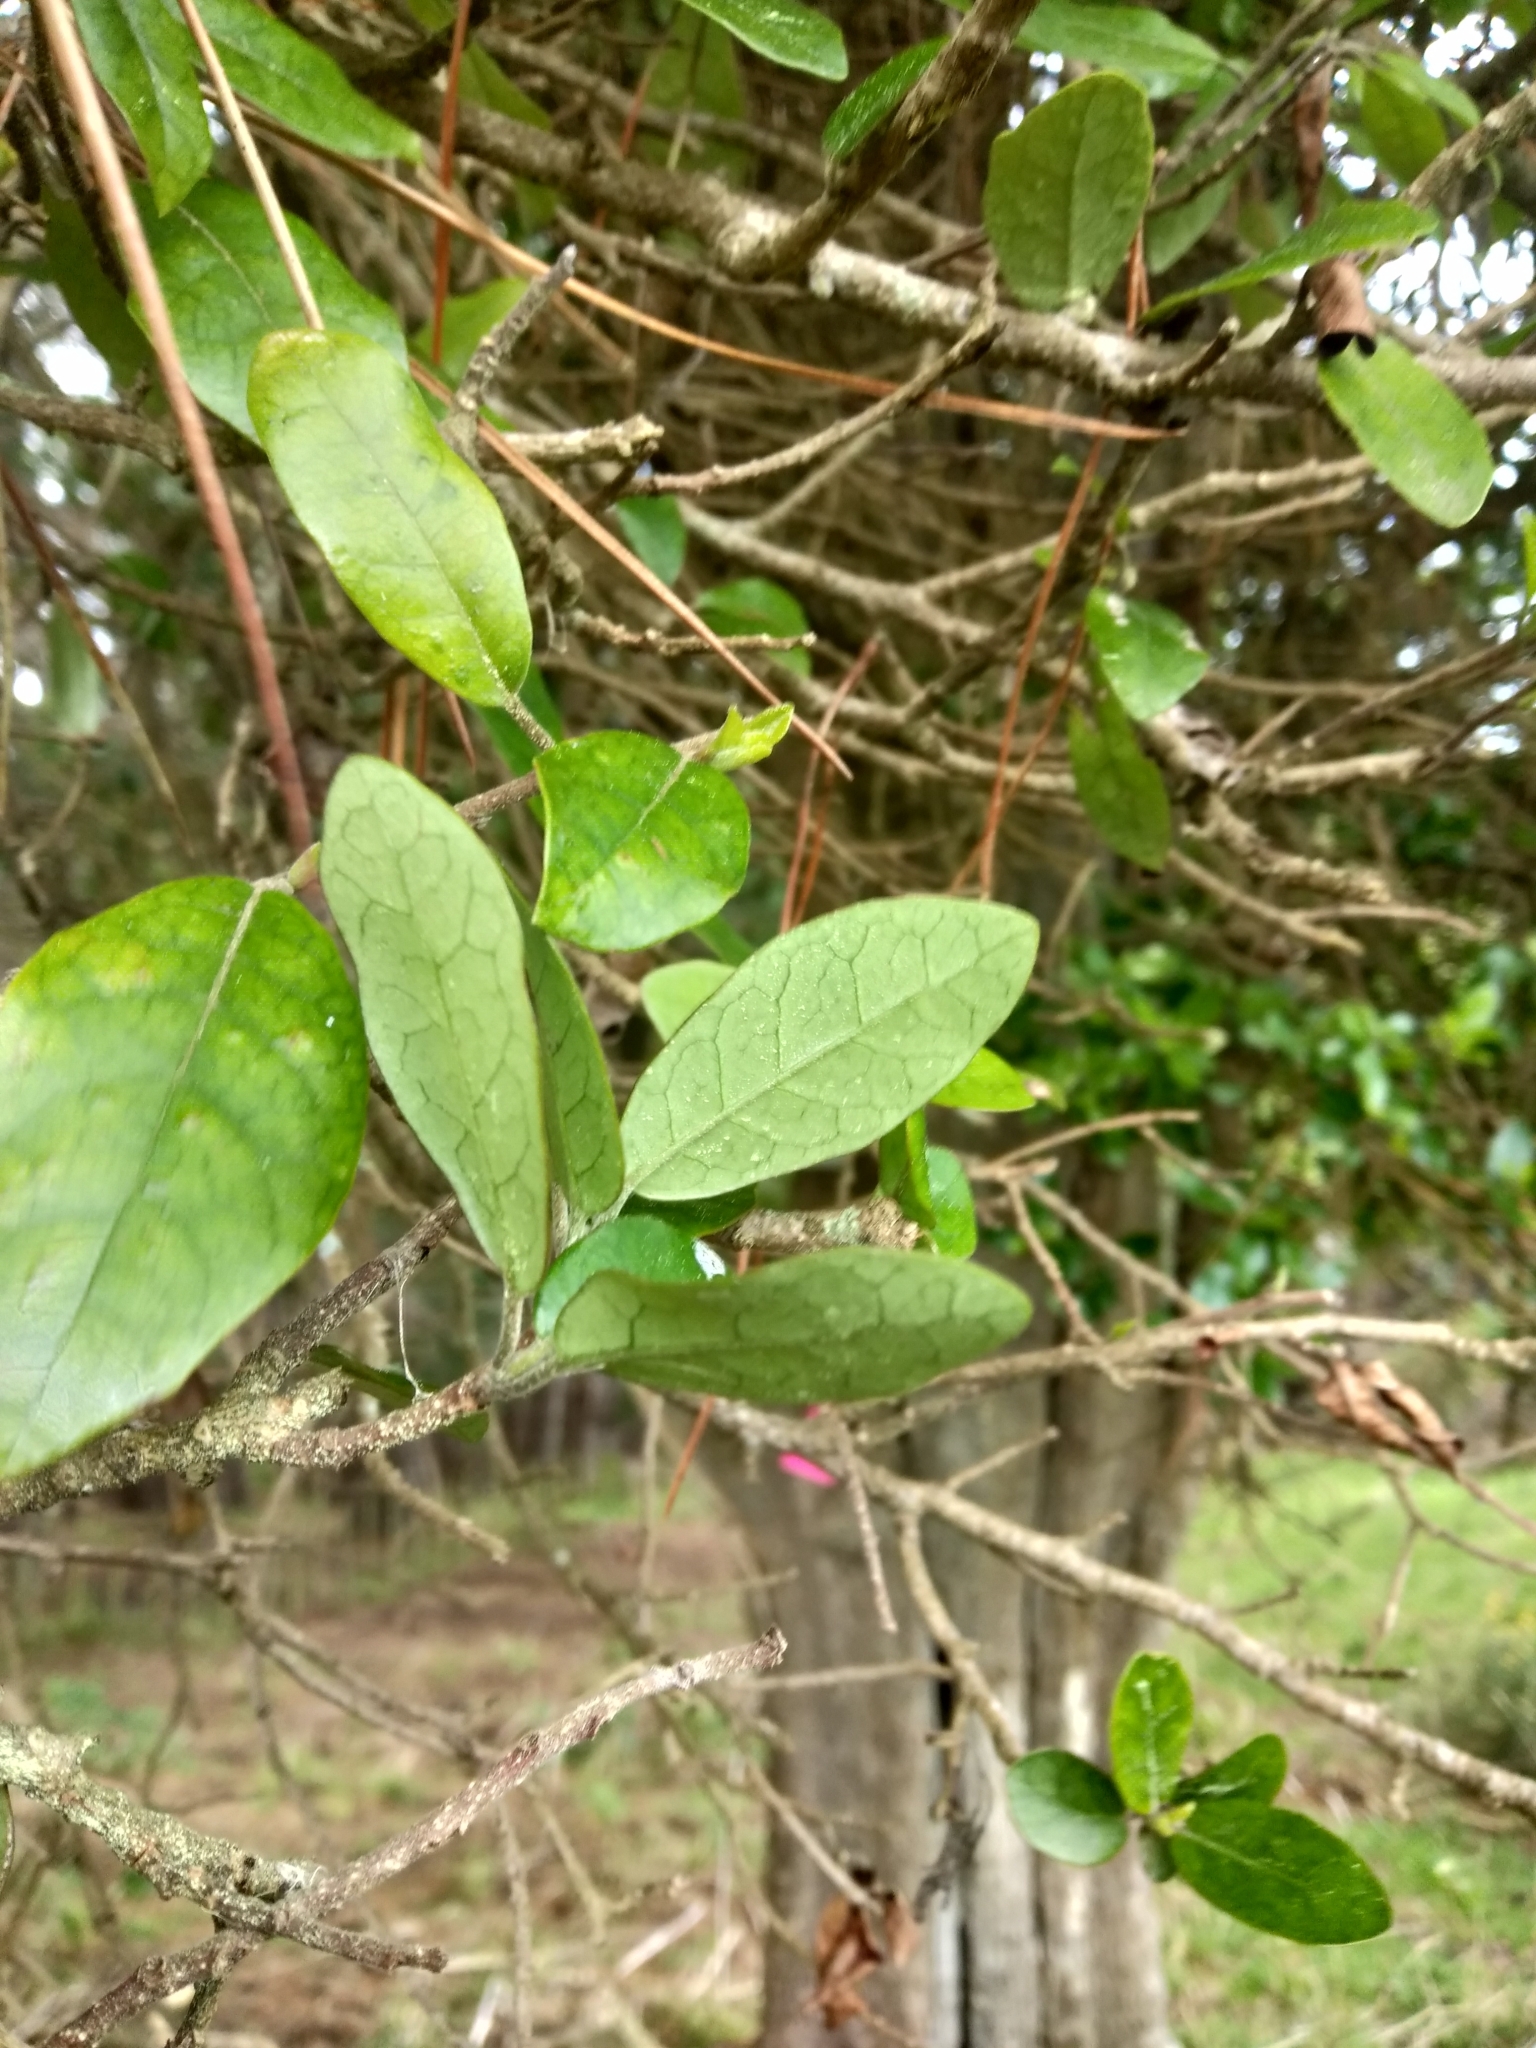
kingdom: Plantae
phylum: Tracheophyta
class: Magnoliopsida
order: Apiales
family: Pennantiaceae
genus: Pennantia
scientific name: Pennantia corymbosa
